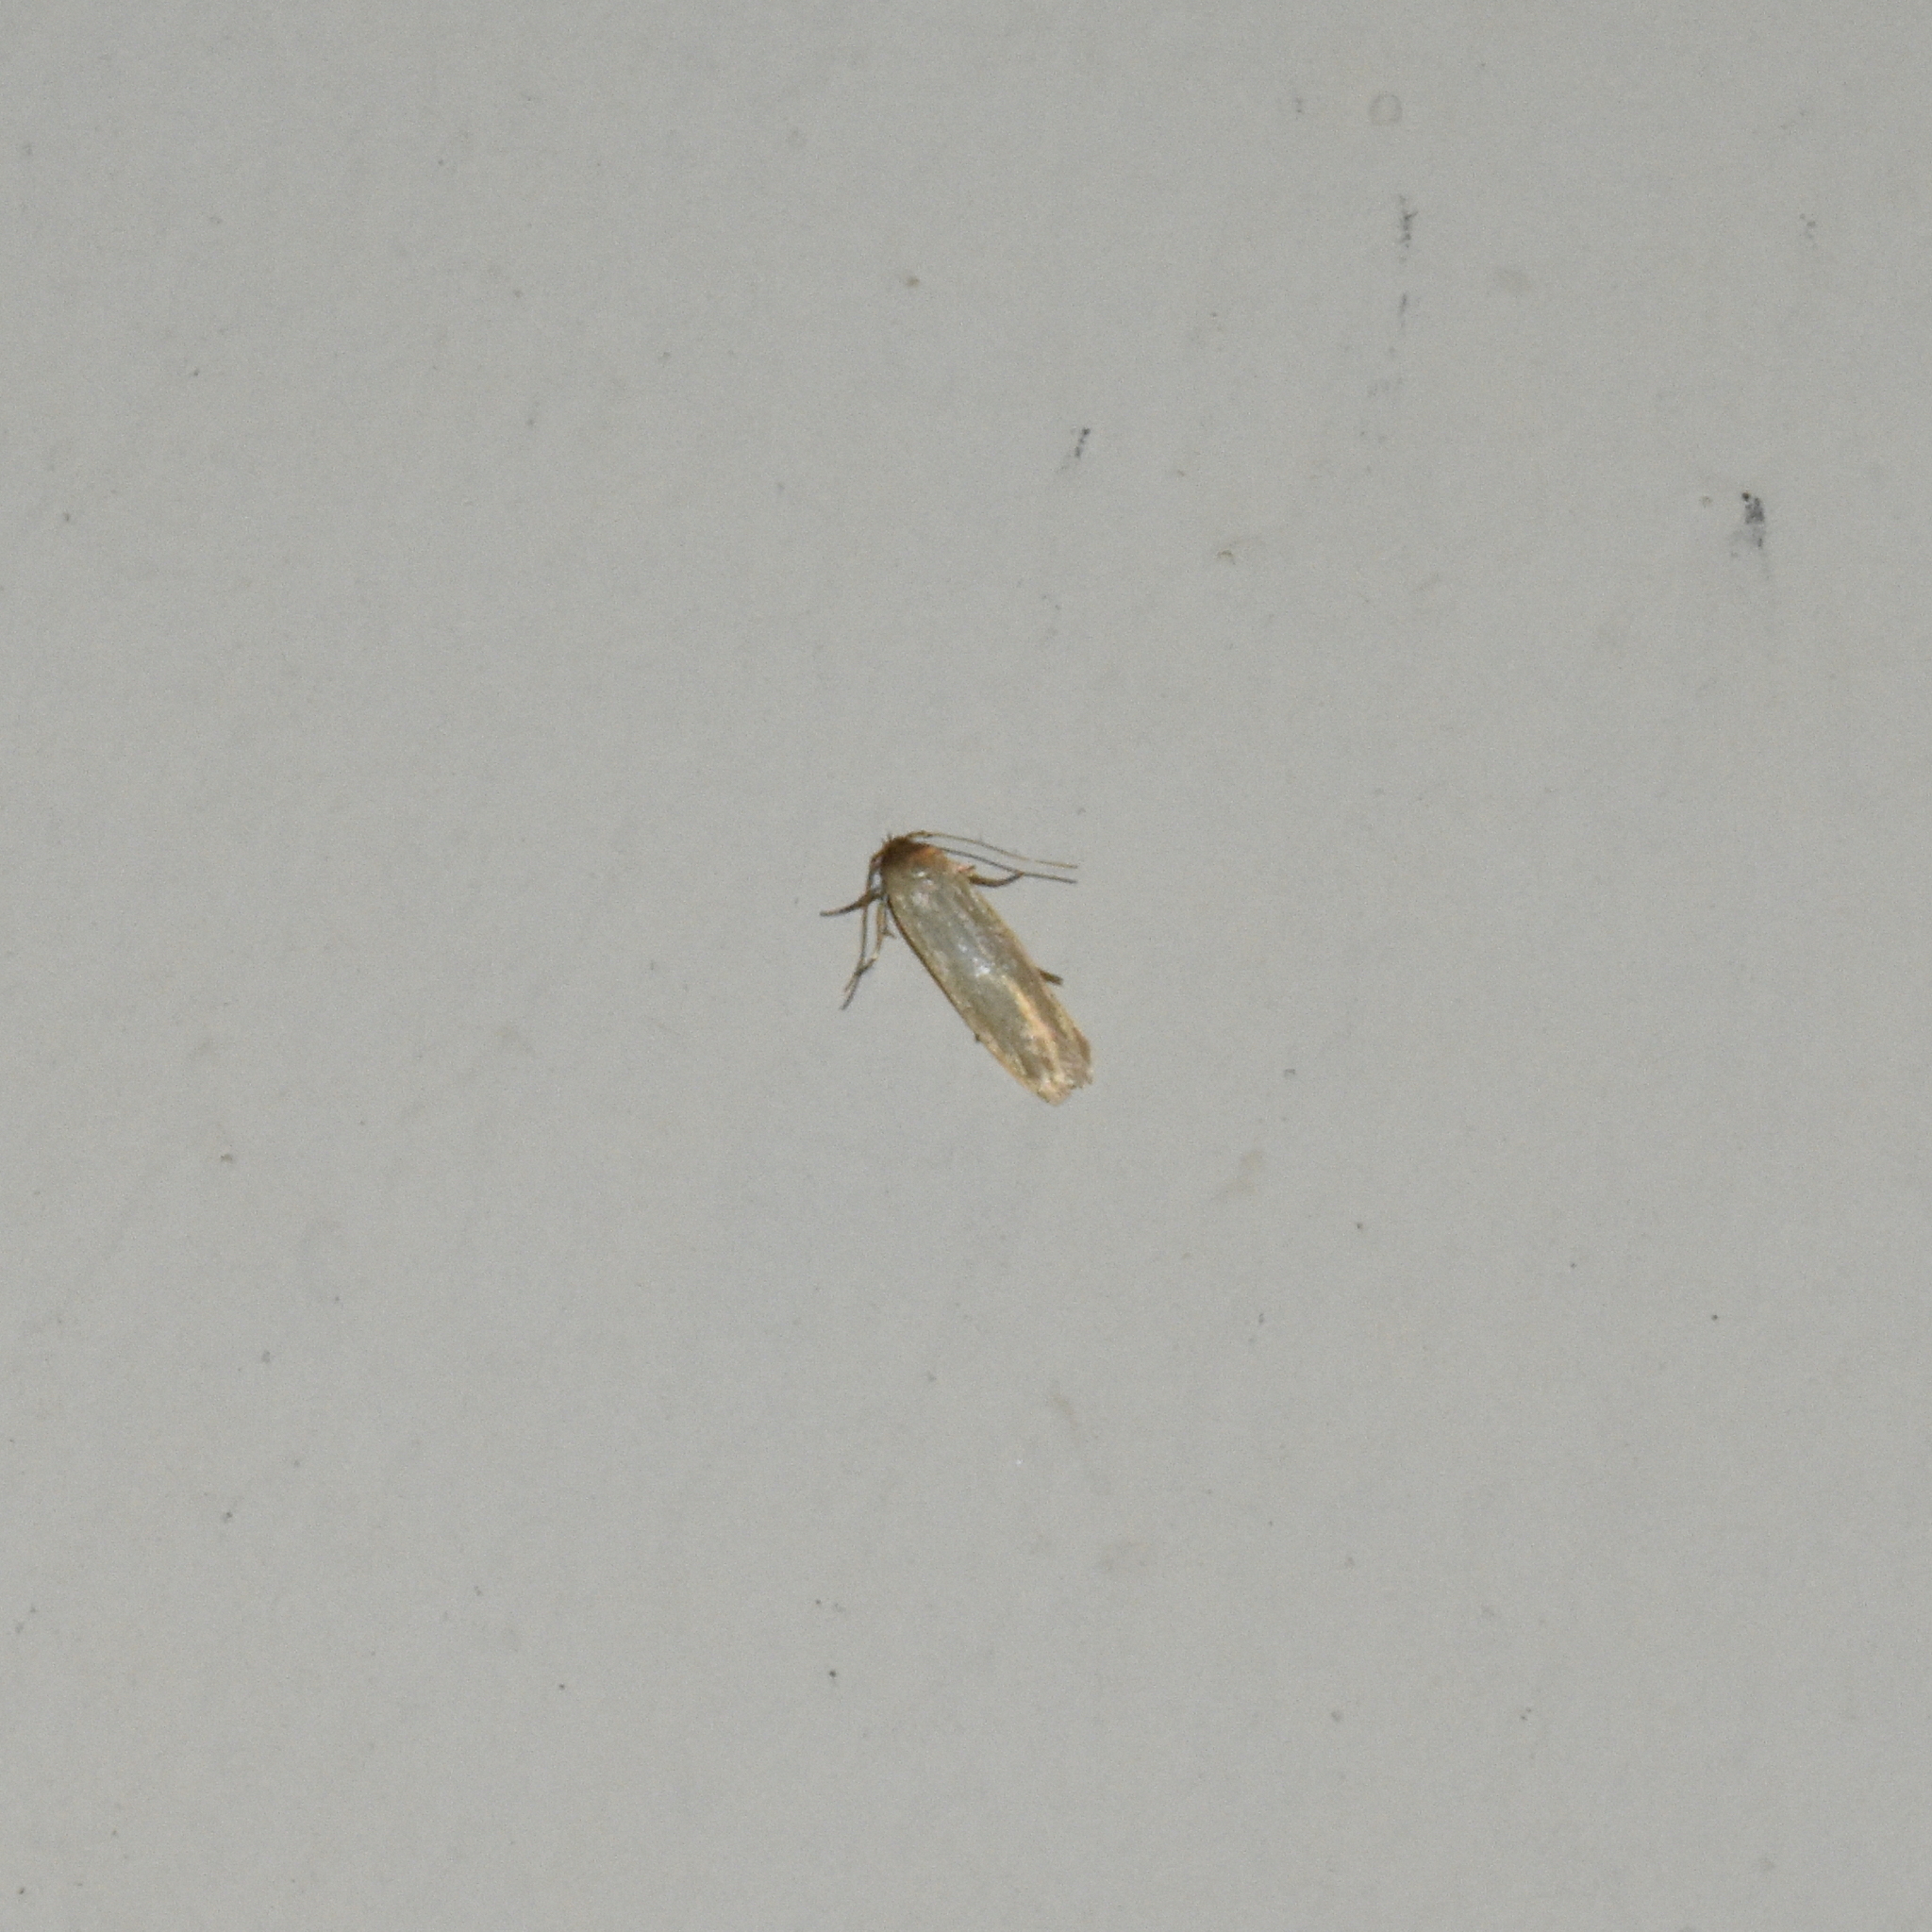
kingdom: Animalia
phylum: Arthropoda
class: Insecta
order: Lepidoptera
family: Blastobasidae
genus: Holcocerina
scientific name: Holcocerina immaculella
